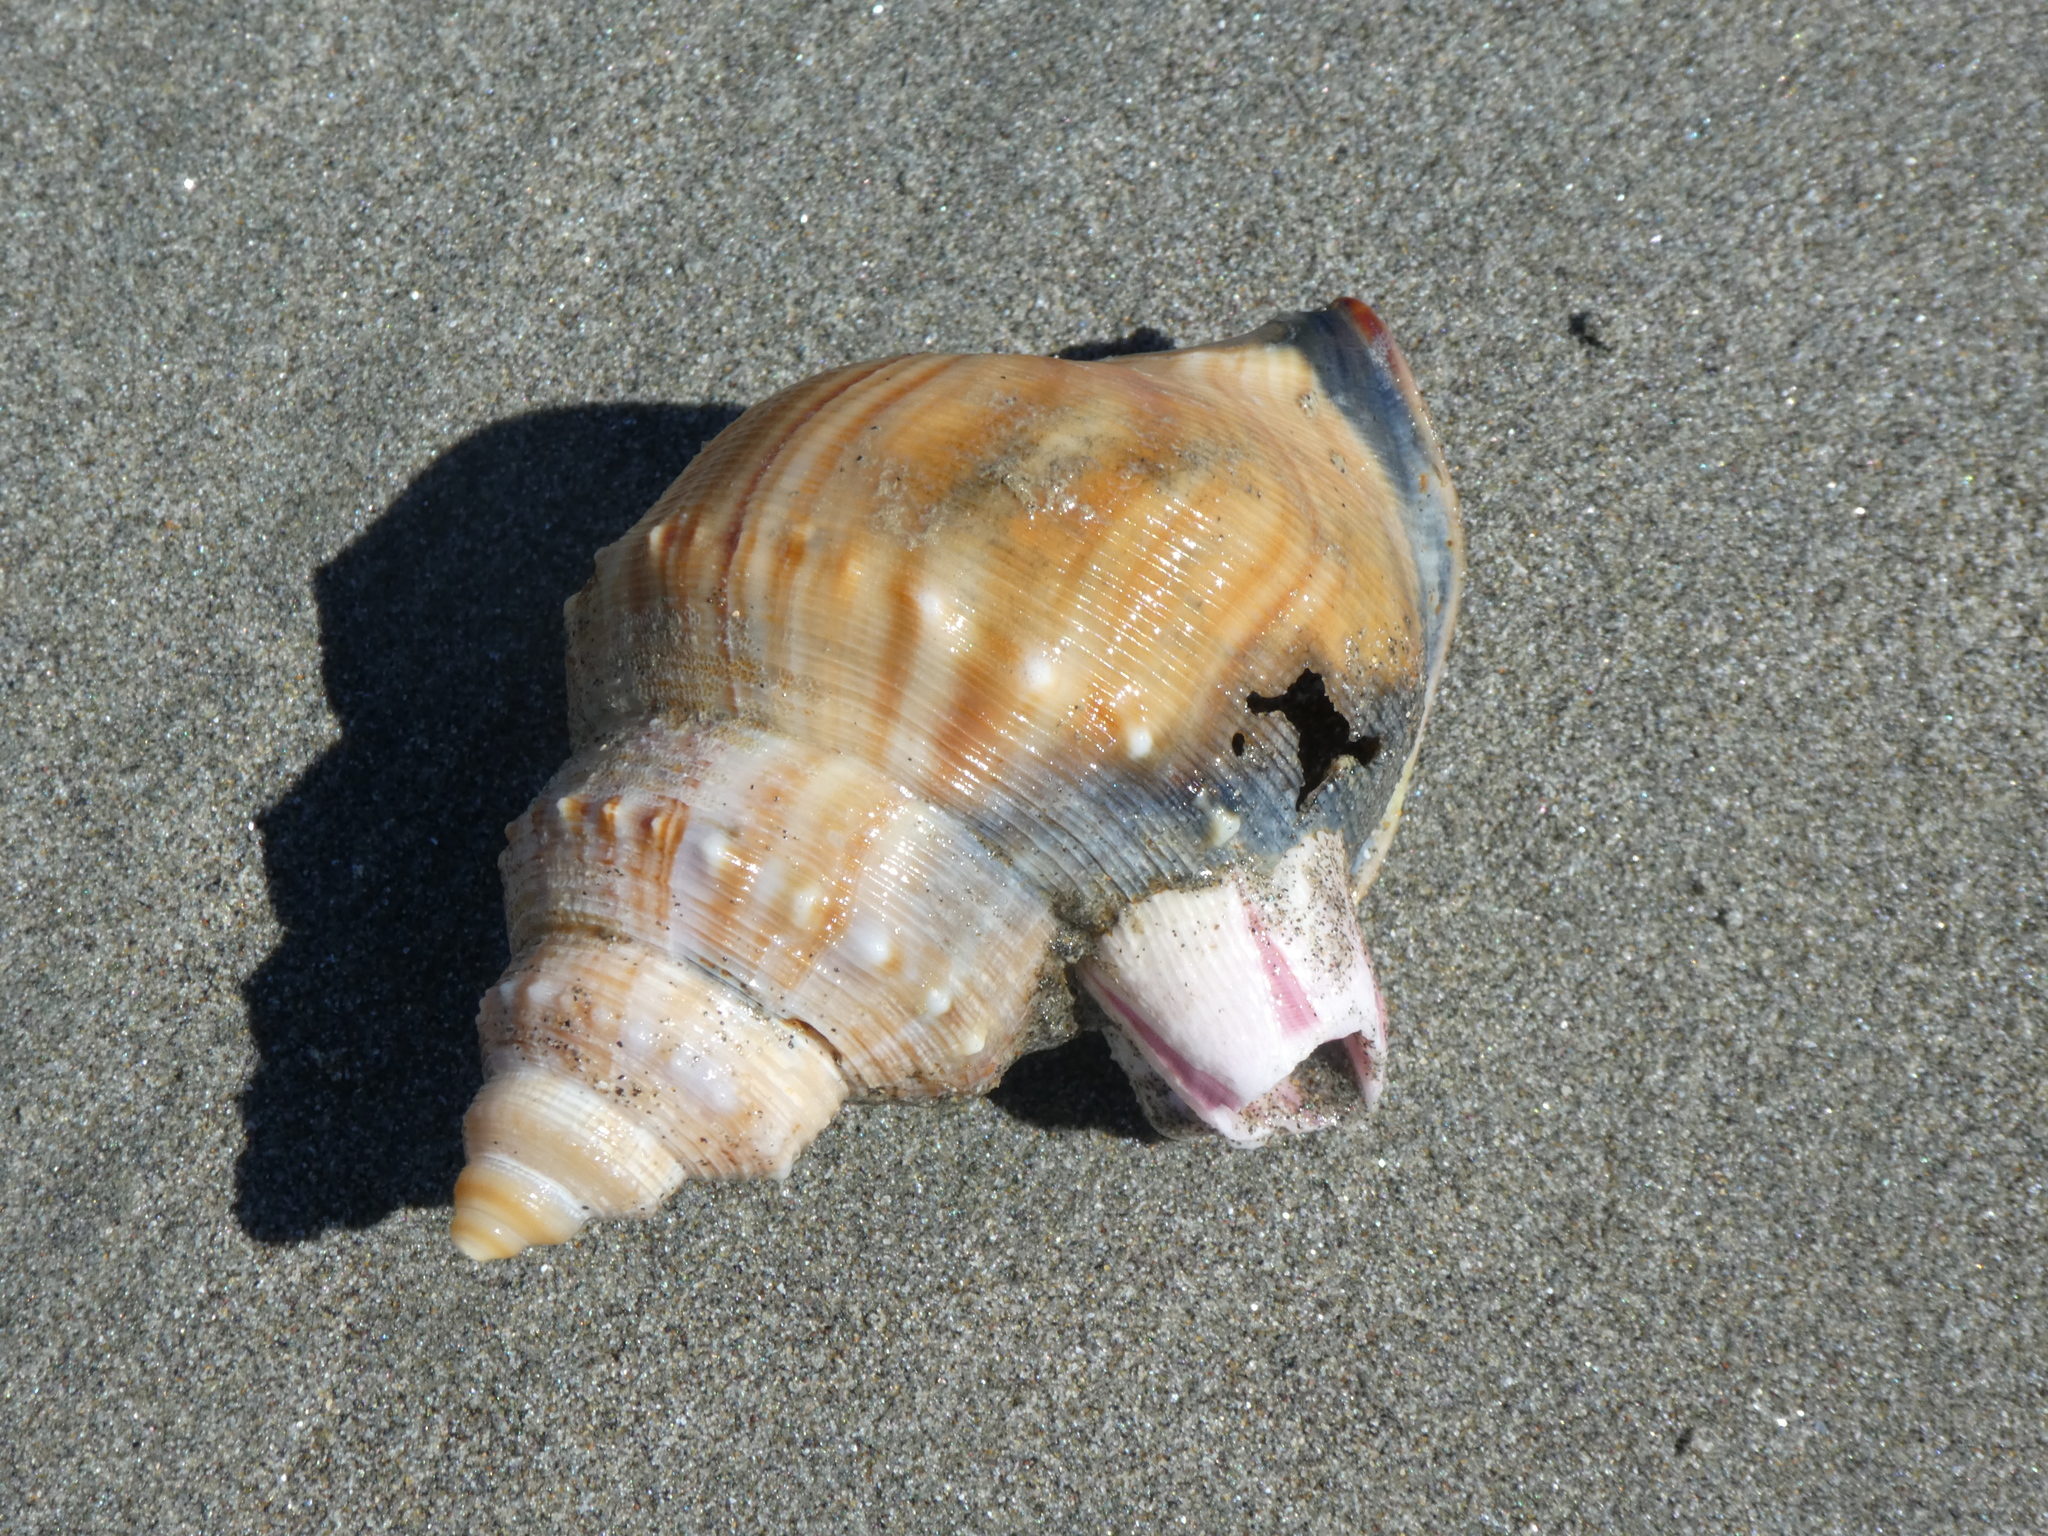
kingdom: Animalia
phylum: Mollusca
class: Gastropoda
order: Littorinimorpha
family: Struthiolariidae
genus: Struthiolaria
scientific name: Struthiolaria papulosa
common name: Large ostrich foot
